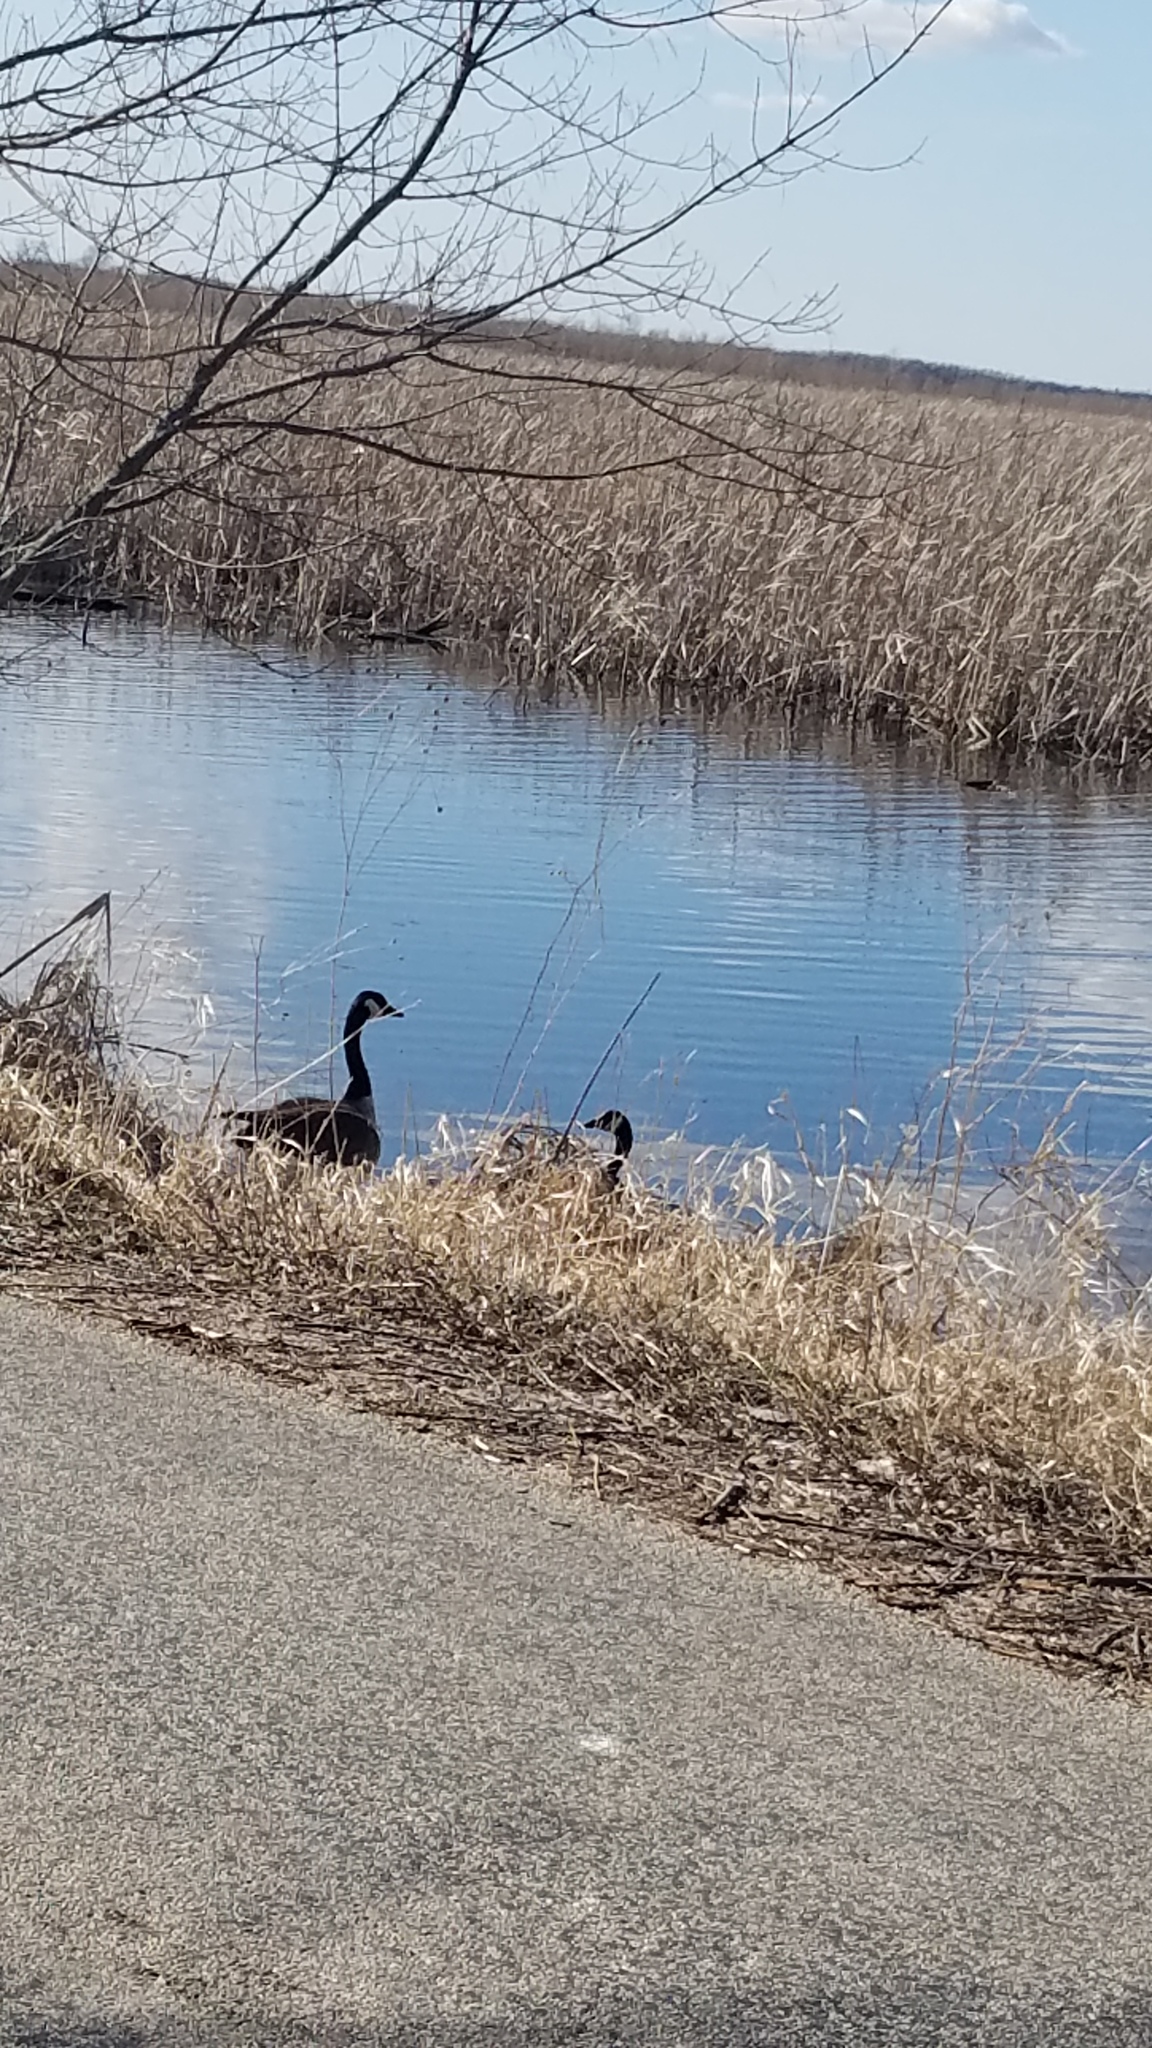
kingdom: Animalia
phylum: Chordata
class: Aves
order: Anseriformes
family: Anatidae
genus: Branta
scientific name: Branta canadensis
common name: Canada goose
